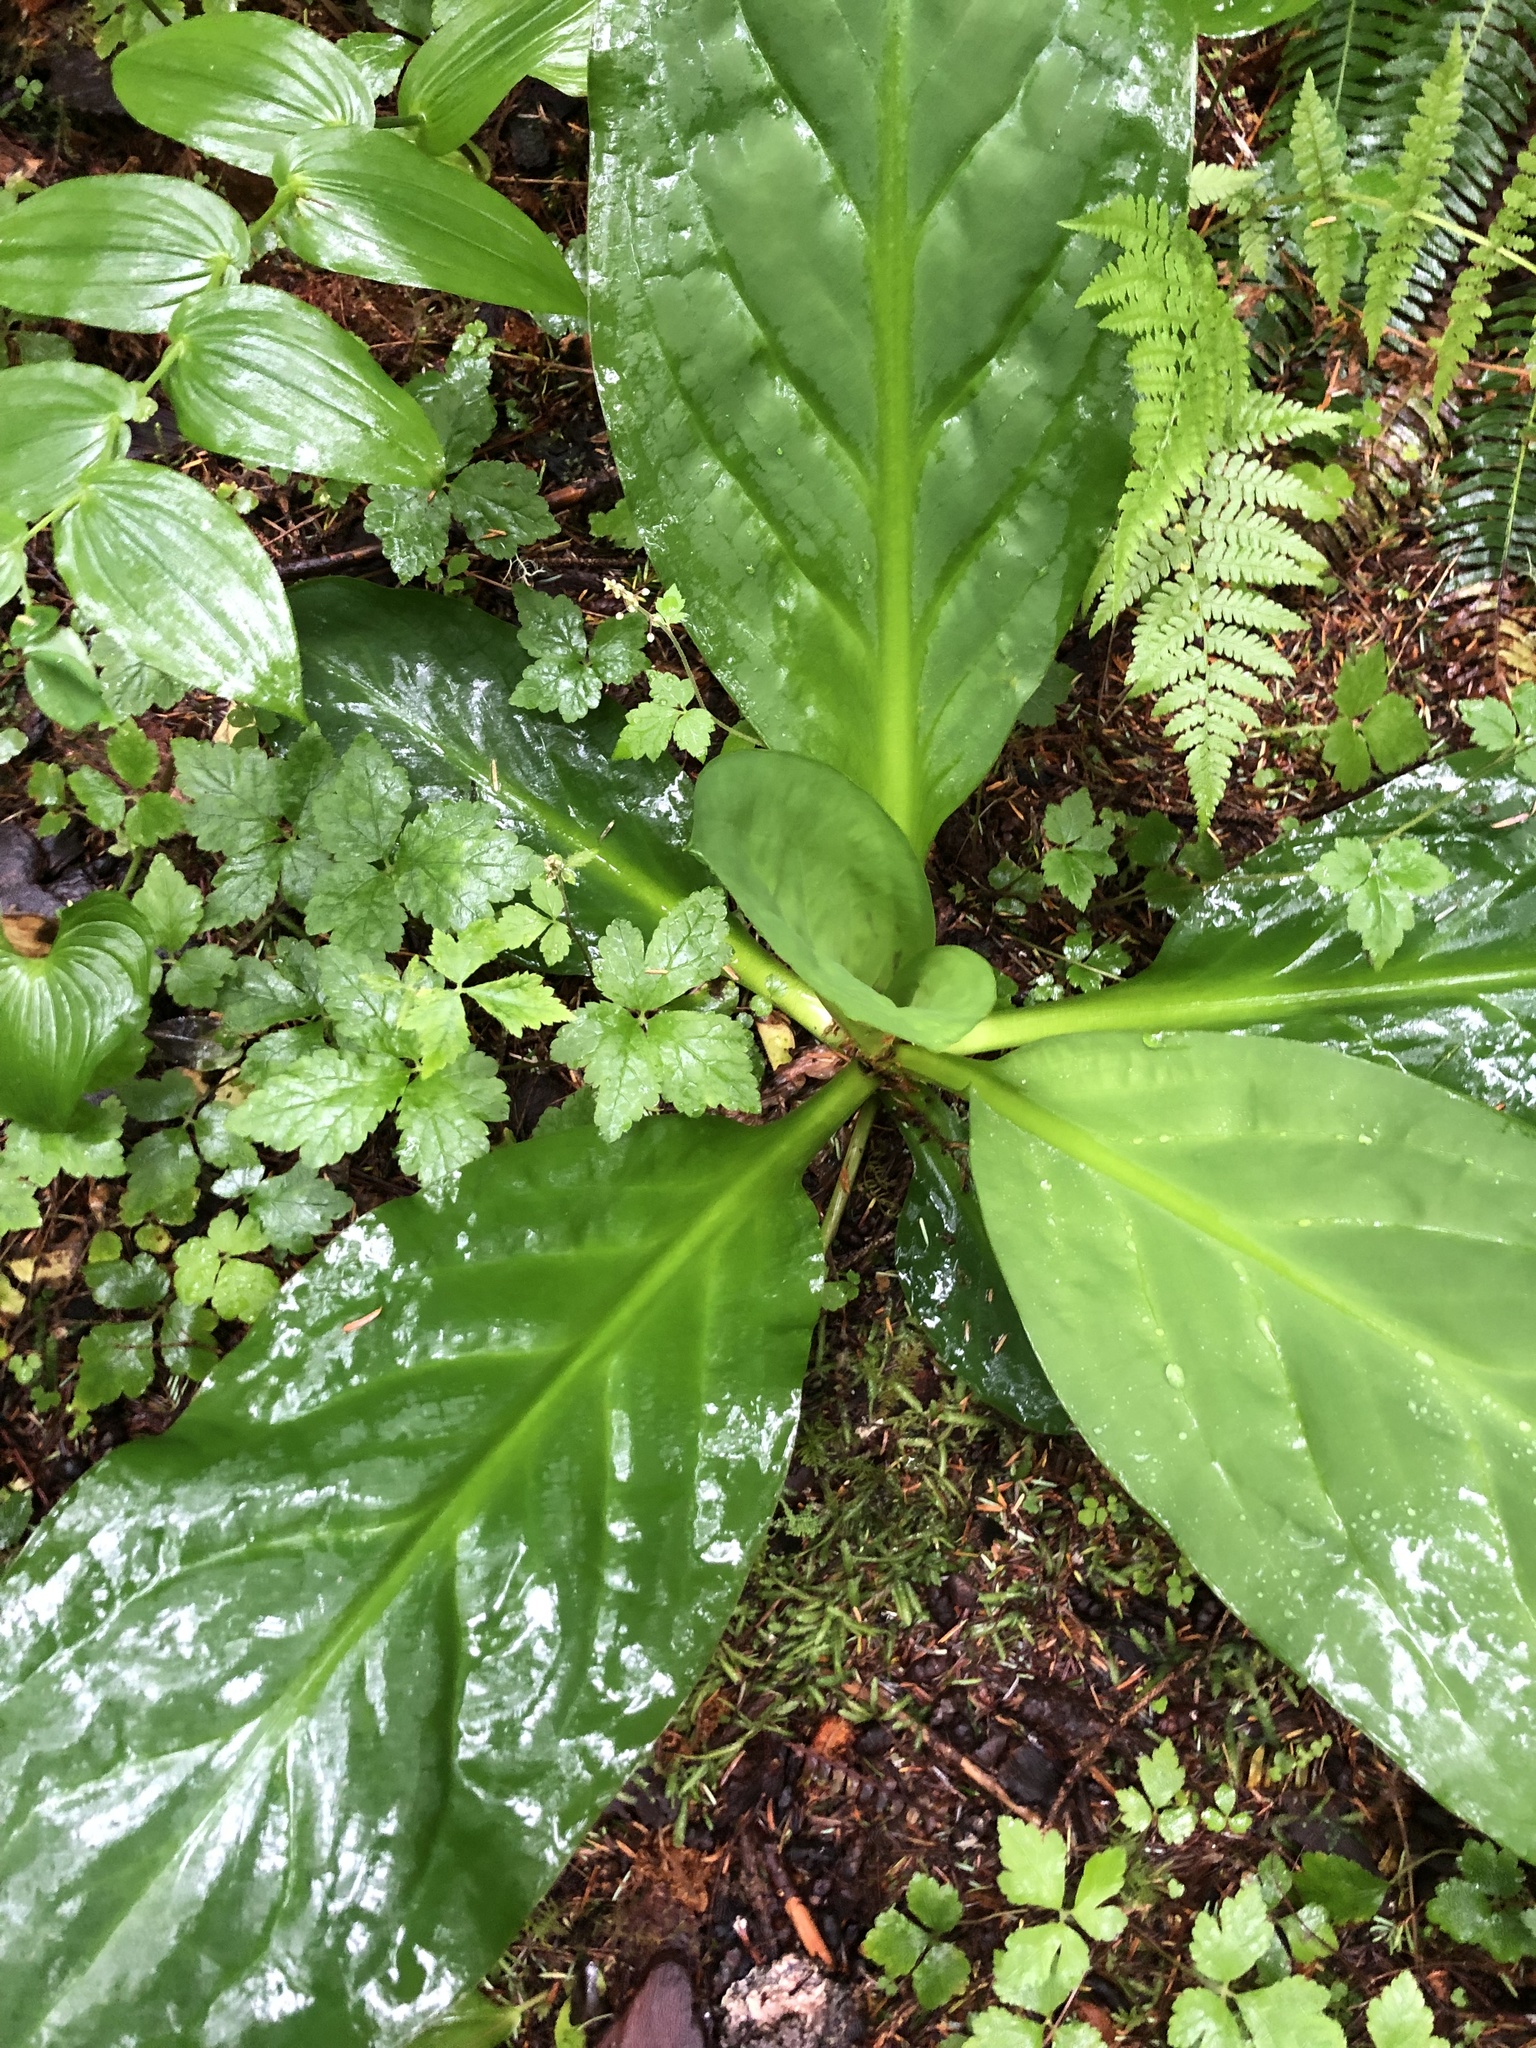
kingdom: Plantae
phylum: Tracheophyta
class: Liliopsida
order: Alismatales
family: Araceae
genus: Lysichiton
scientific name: Lysichiton americanus
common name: American skunk cabbage
